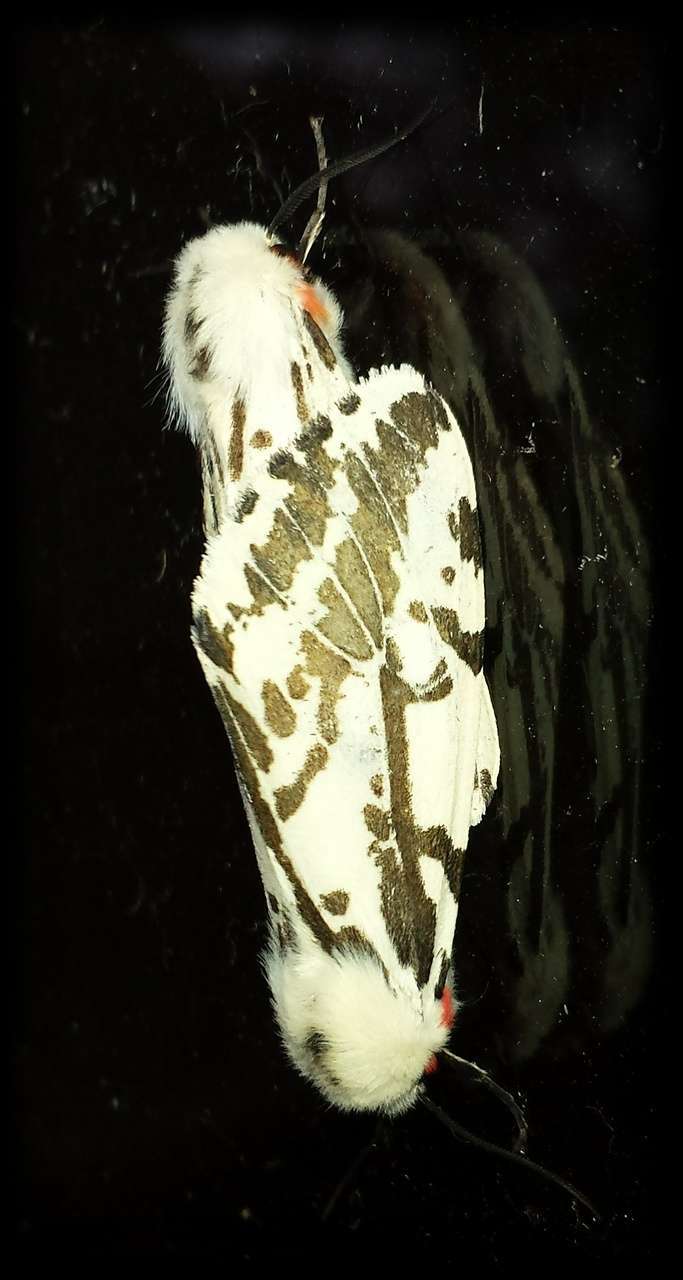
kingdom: Animalia
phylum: Arthropoda
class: Insecta
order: Lepidoptera
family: Erebidae
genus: Ardices
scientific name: Ardices glatignyi
